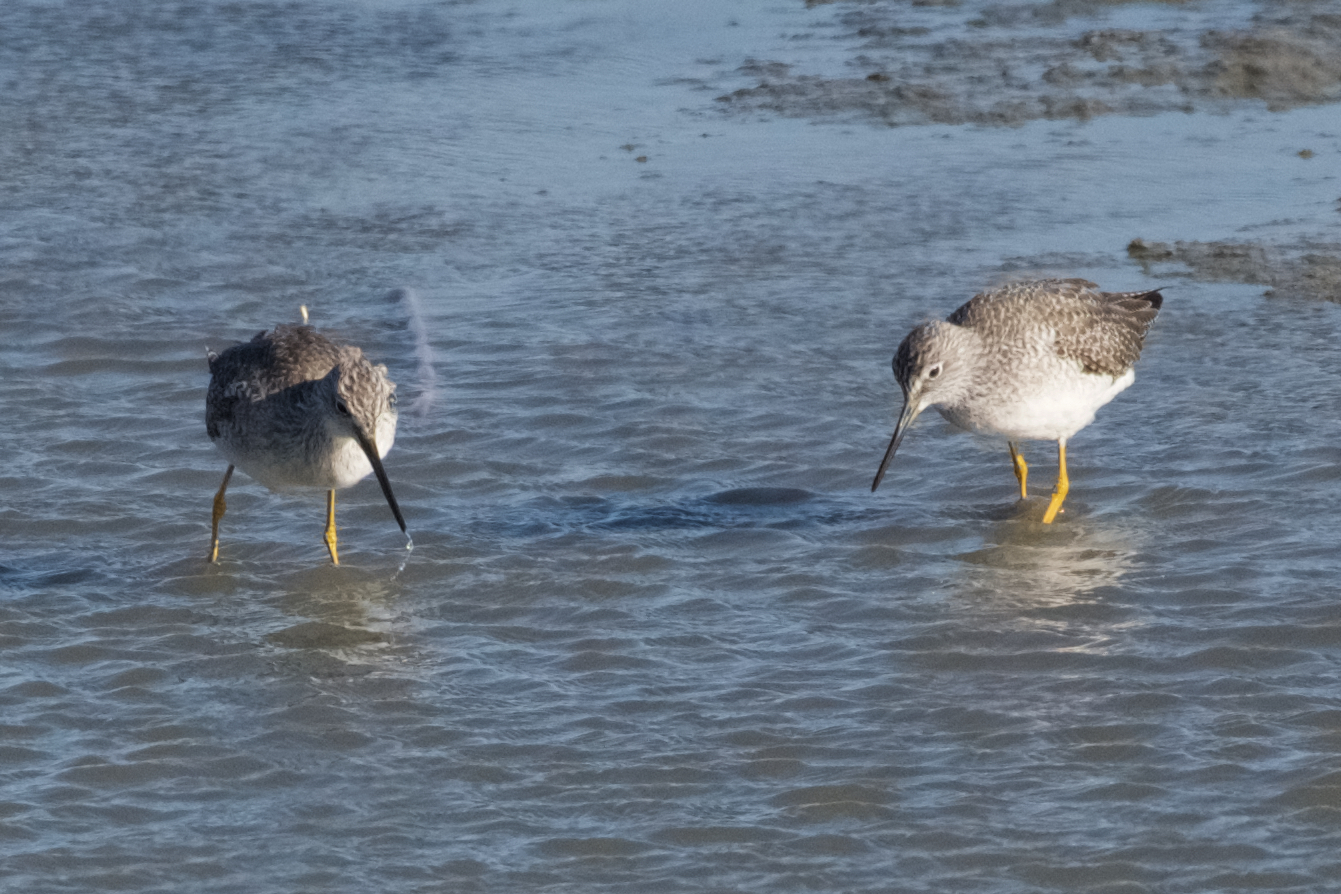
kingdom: Animalia
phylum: Chordata
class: Aves
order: Charadriiformes
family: Scolopacidae
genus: Tringa
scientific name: Tringa melanoleuca
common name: Greater yellowlegs
